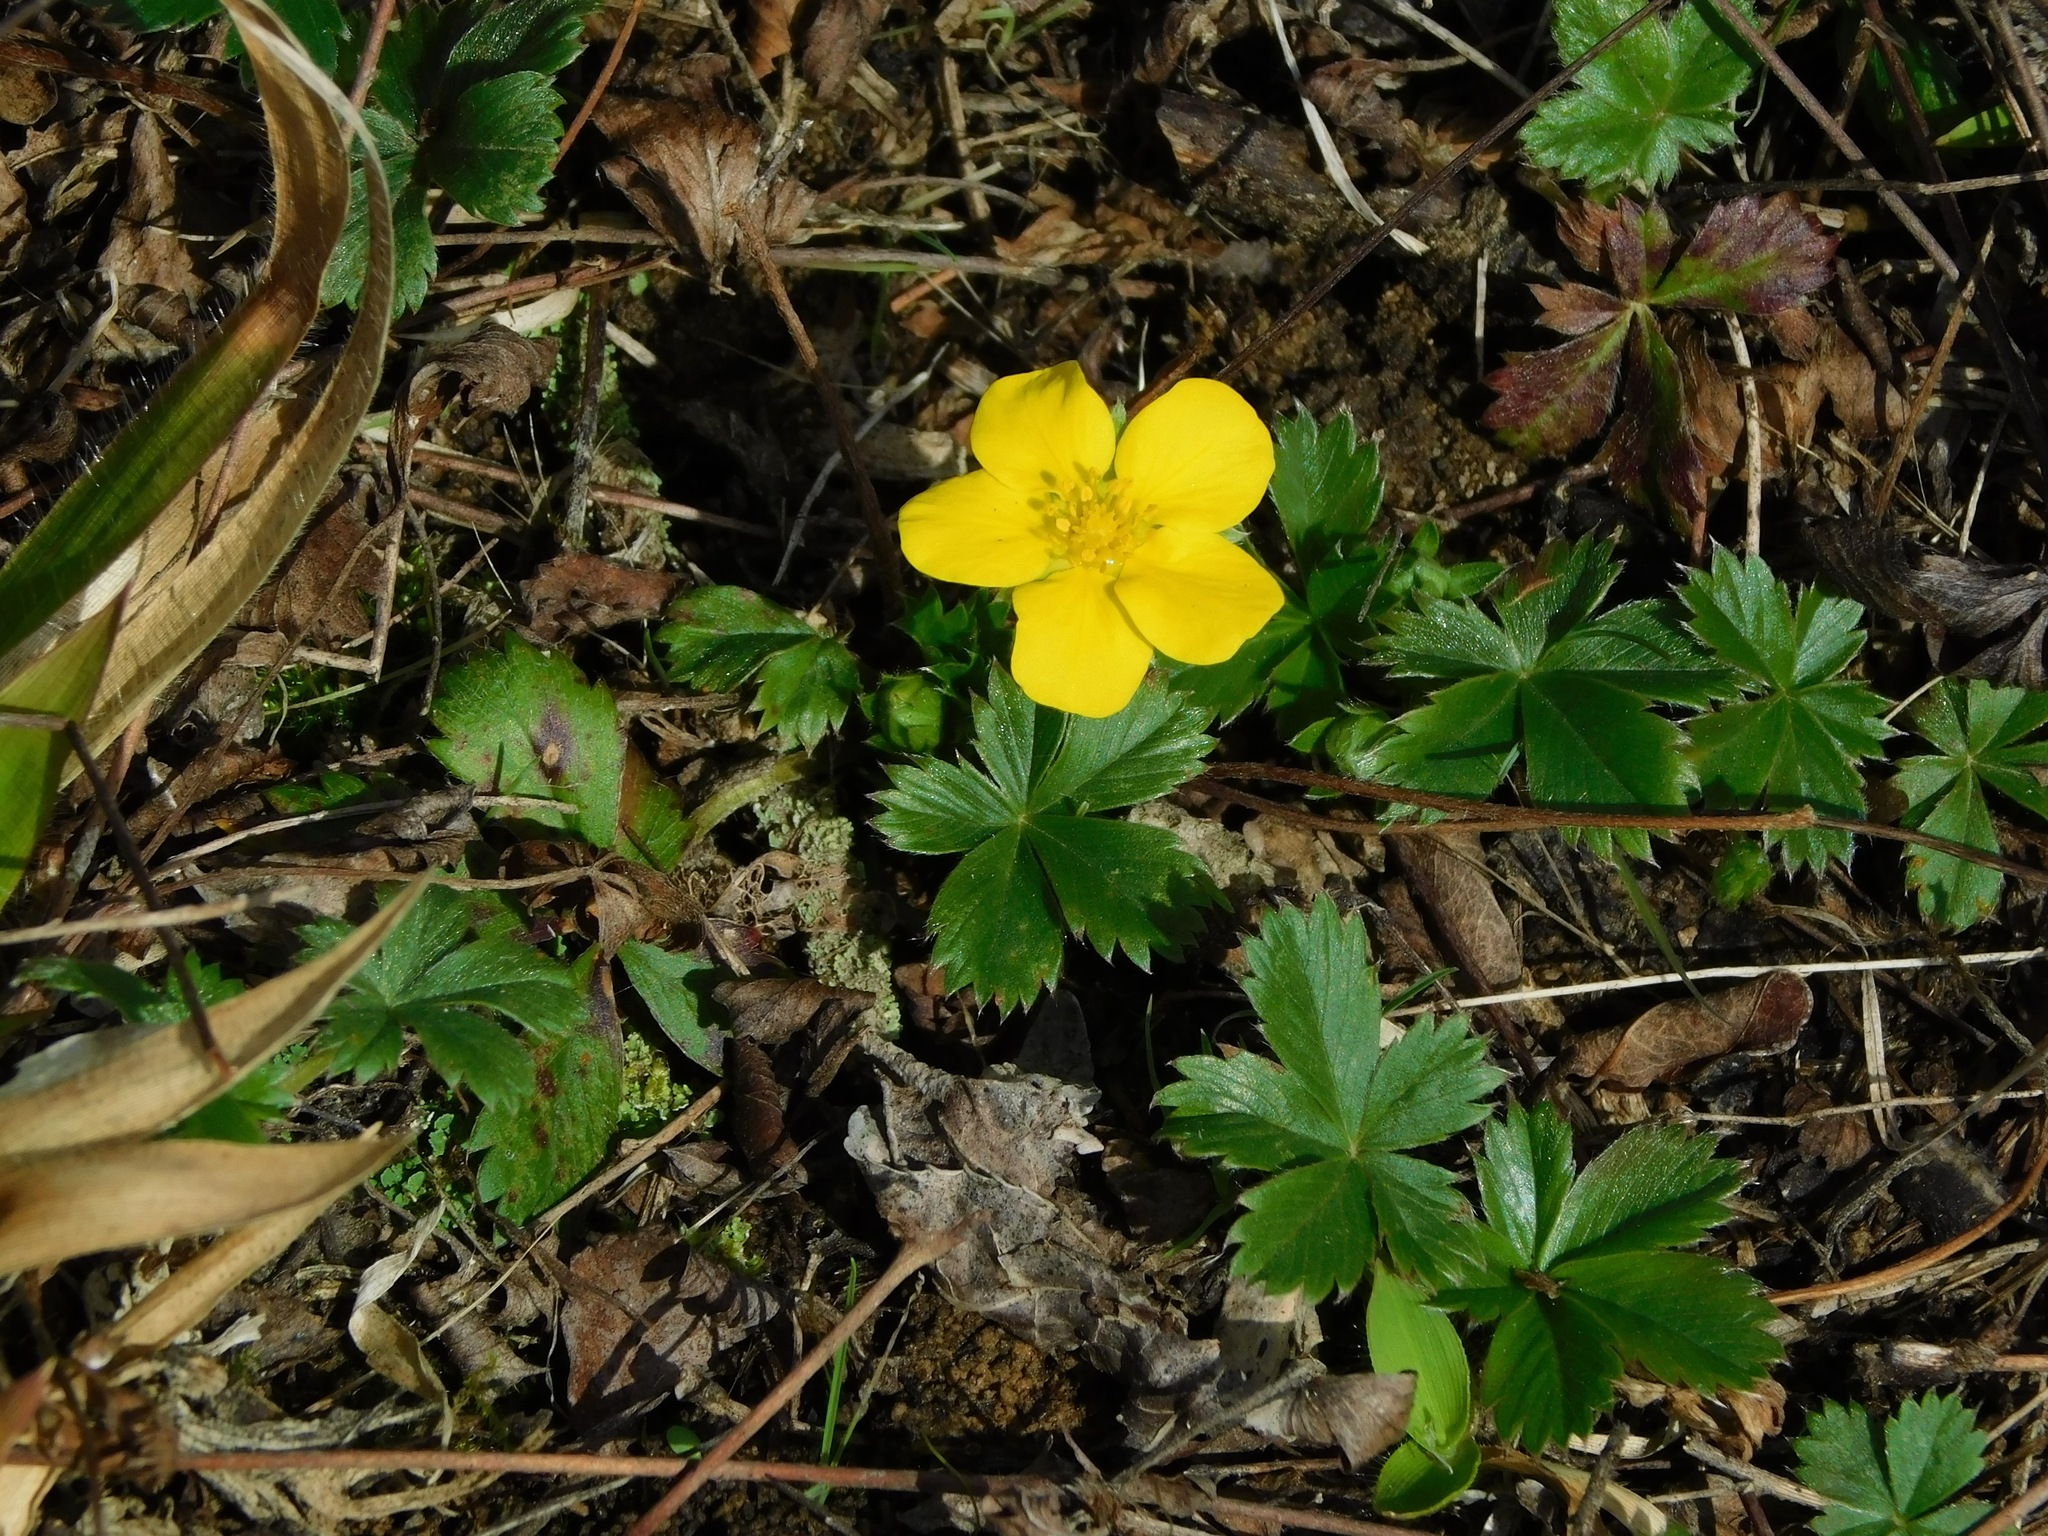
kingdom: Plantae
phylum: Tracheophyta
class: Magnoliopsida
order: Rosales
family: Rosaceae
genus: Potentilla
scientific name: Potentilla canadensis
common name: Canada cinquefoil
